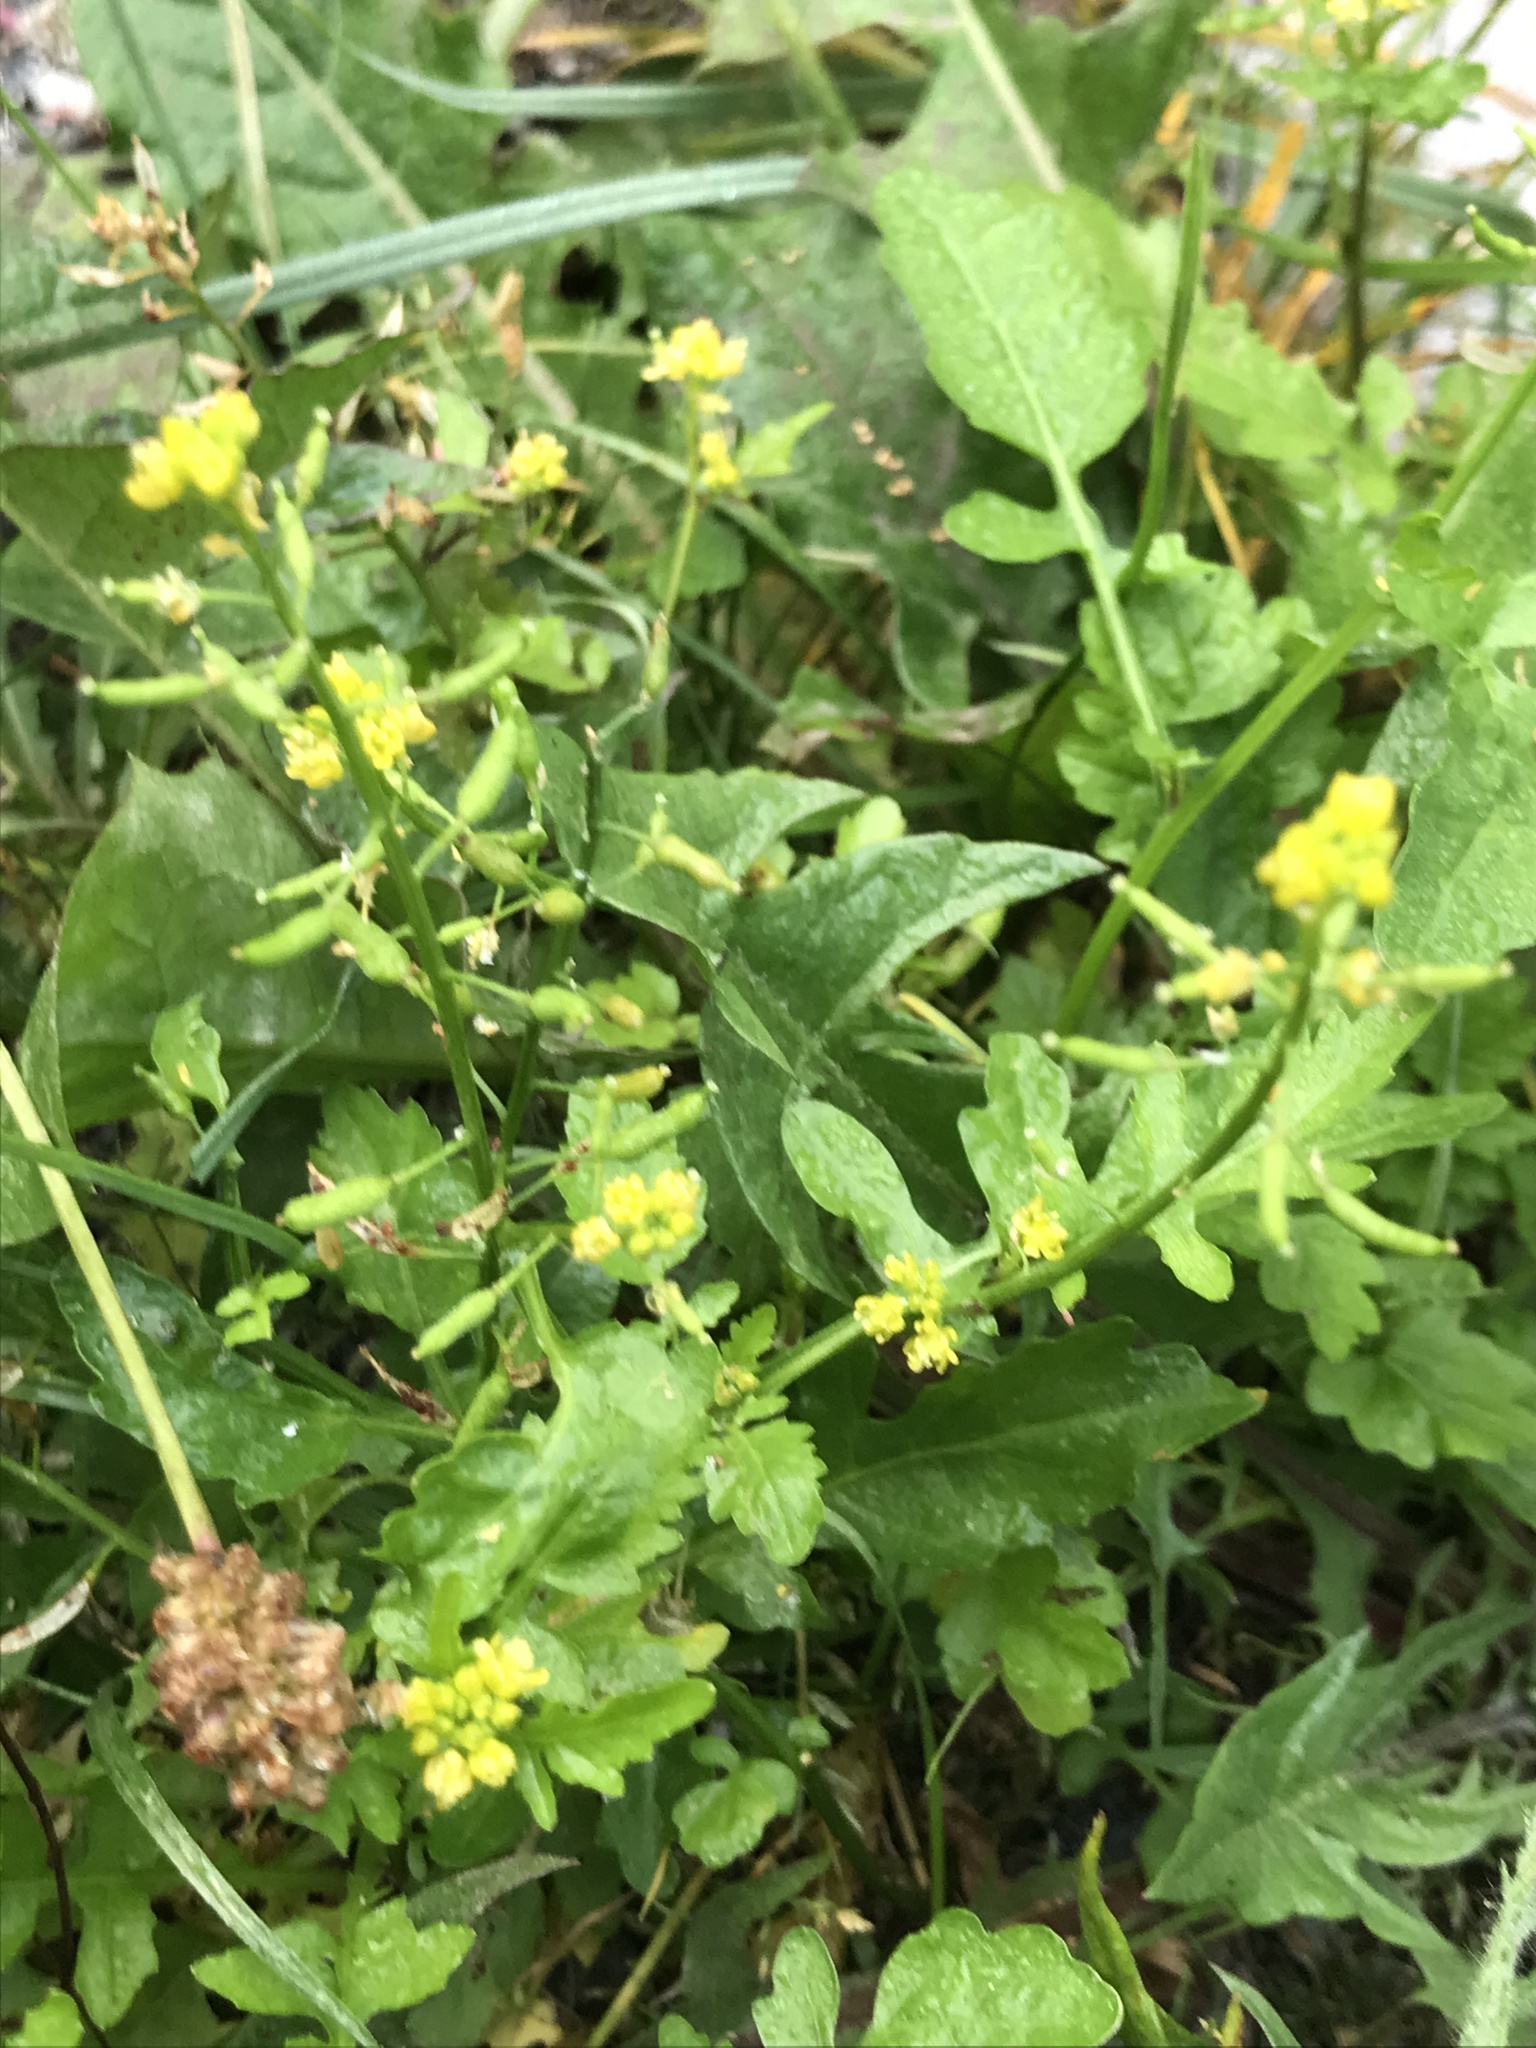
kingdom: Plantae
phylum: Tracheophyta
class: Magnoliopsida
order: Brassicales
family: Brassicaceae
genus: Rorippa
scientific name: Rorippa palustris
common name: Marsh yellow-cress
